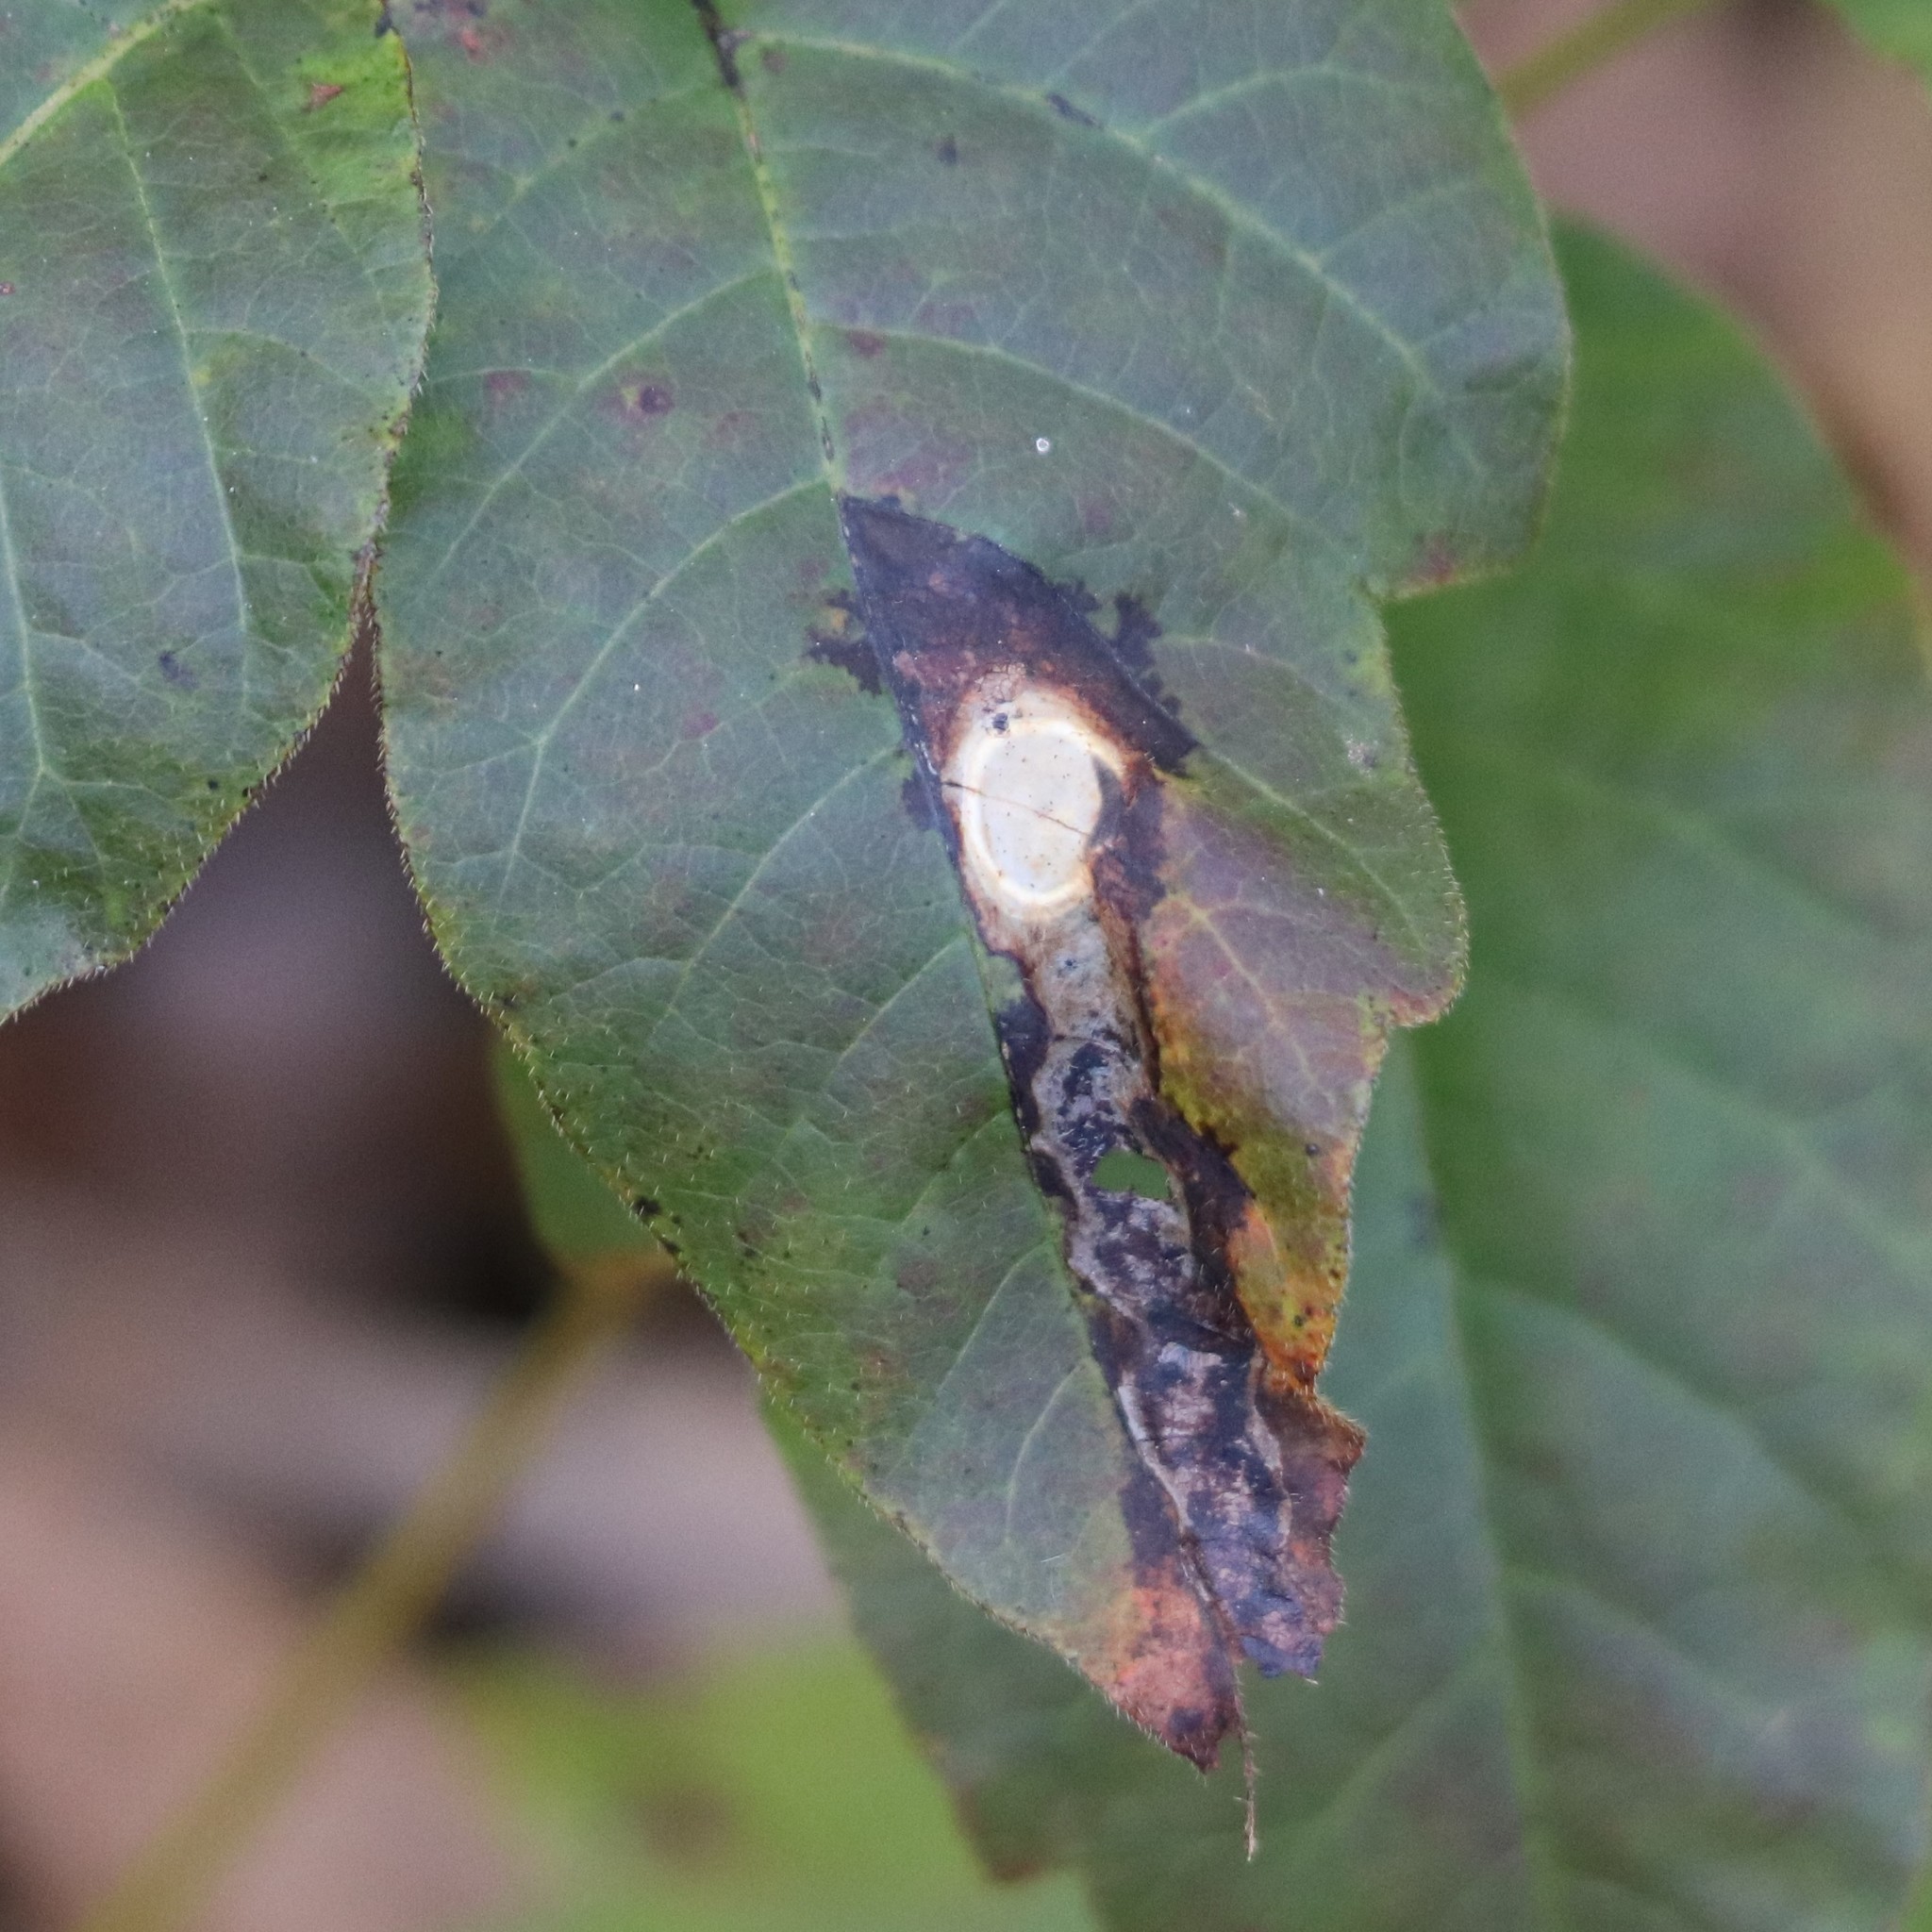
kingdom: Animalia
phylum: Arthropoda
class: Insecta
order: Lepidoptera
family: Gracillariidae
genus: Cameraria
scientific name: Cameraria guttifinitella
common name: Poison ivy leaf-miner moth
